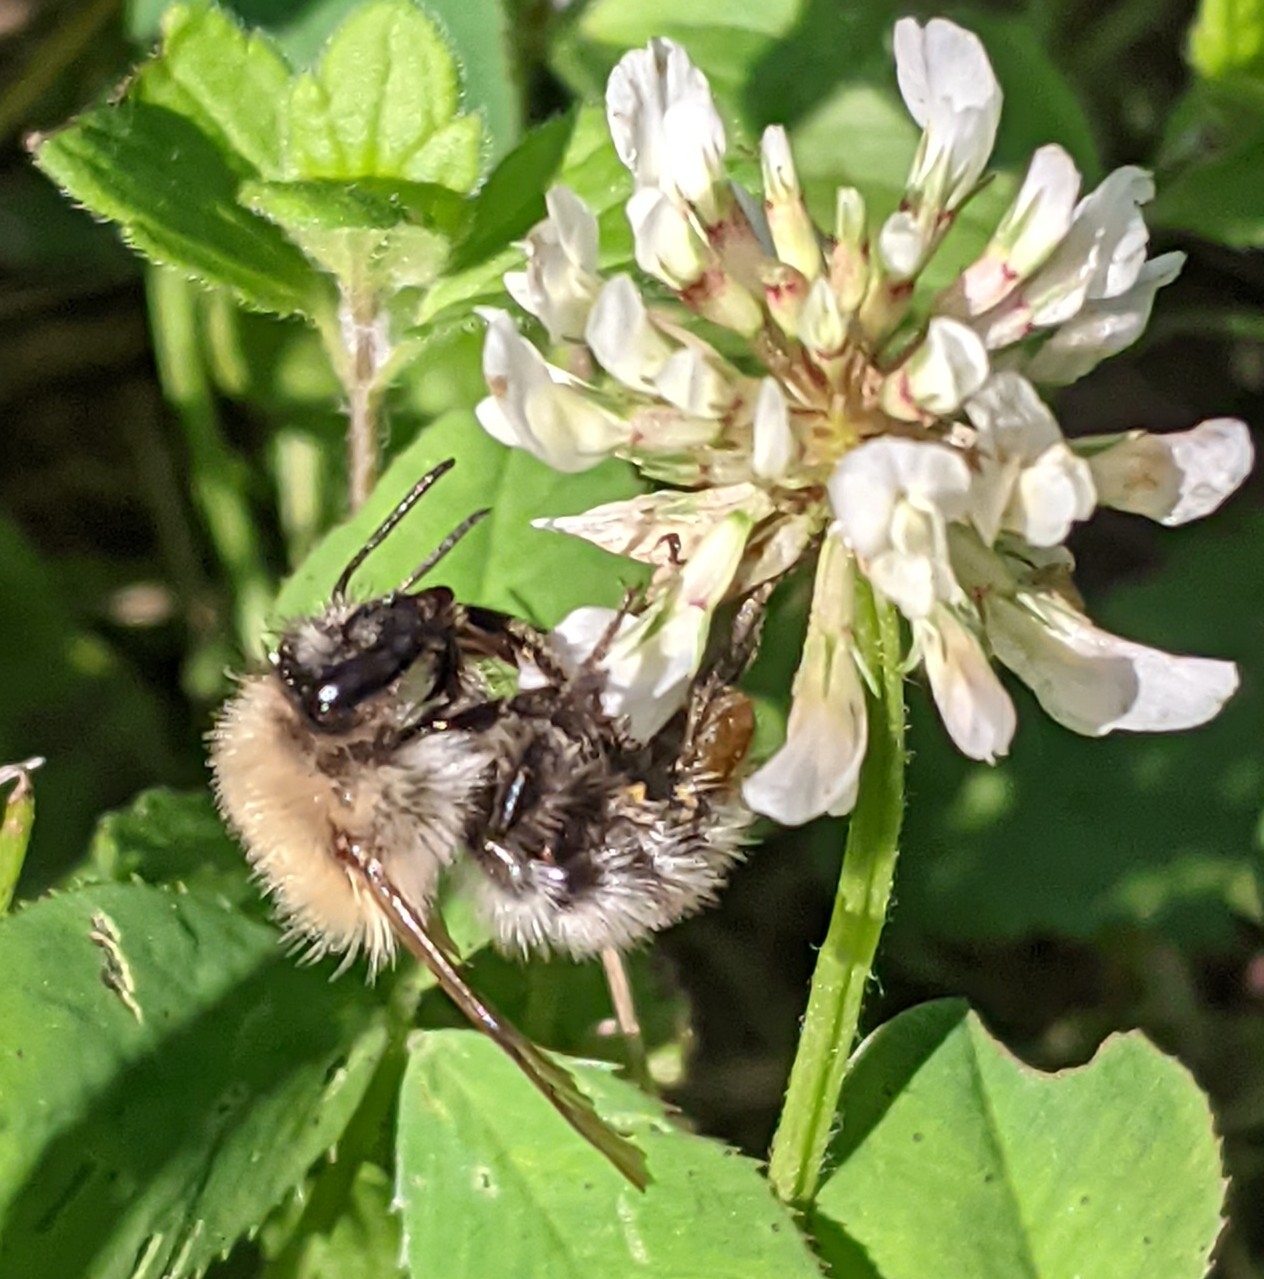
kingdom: Animalia
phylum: Arthropoda
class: Insecta
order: Hymenoptera
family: Apidae
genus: Bombus
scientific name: Bombus pascuorum
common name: Common carder bee
